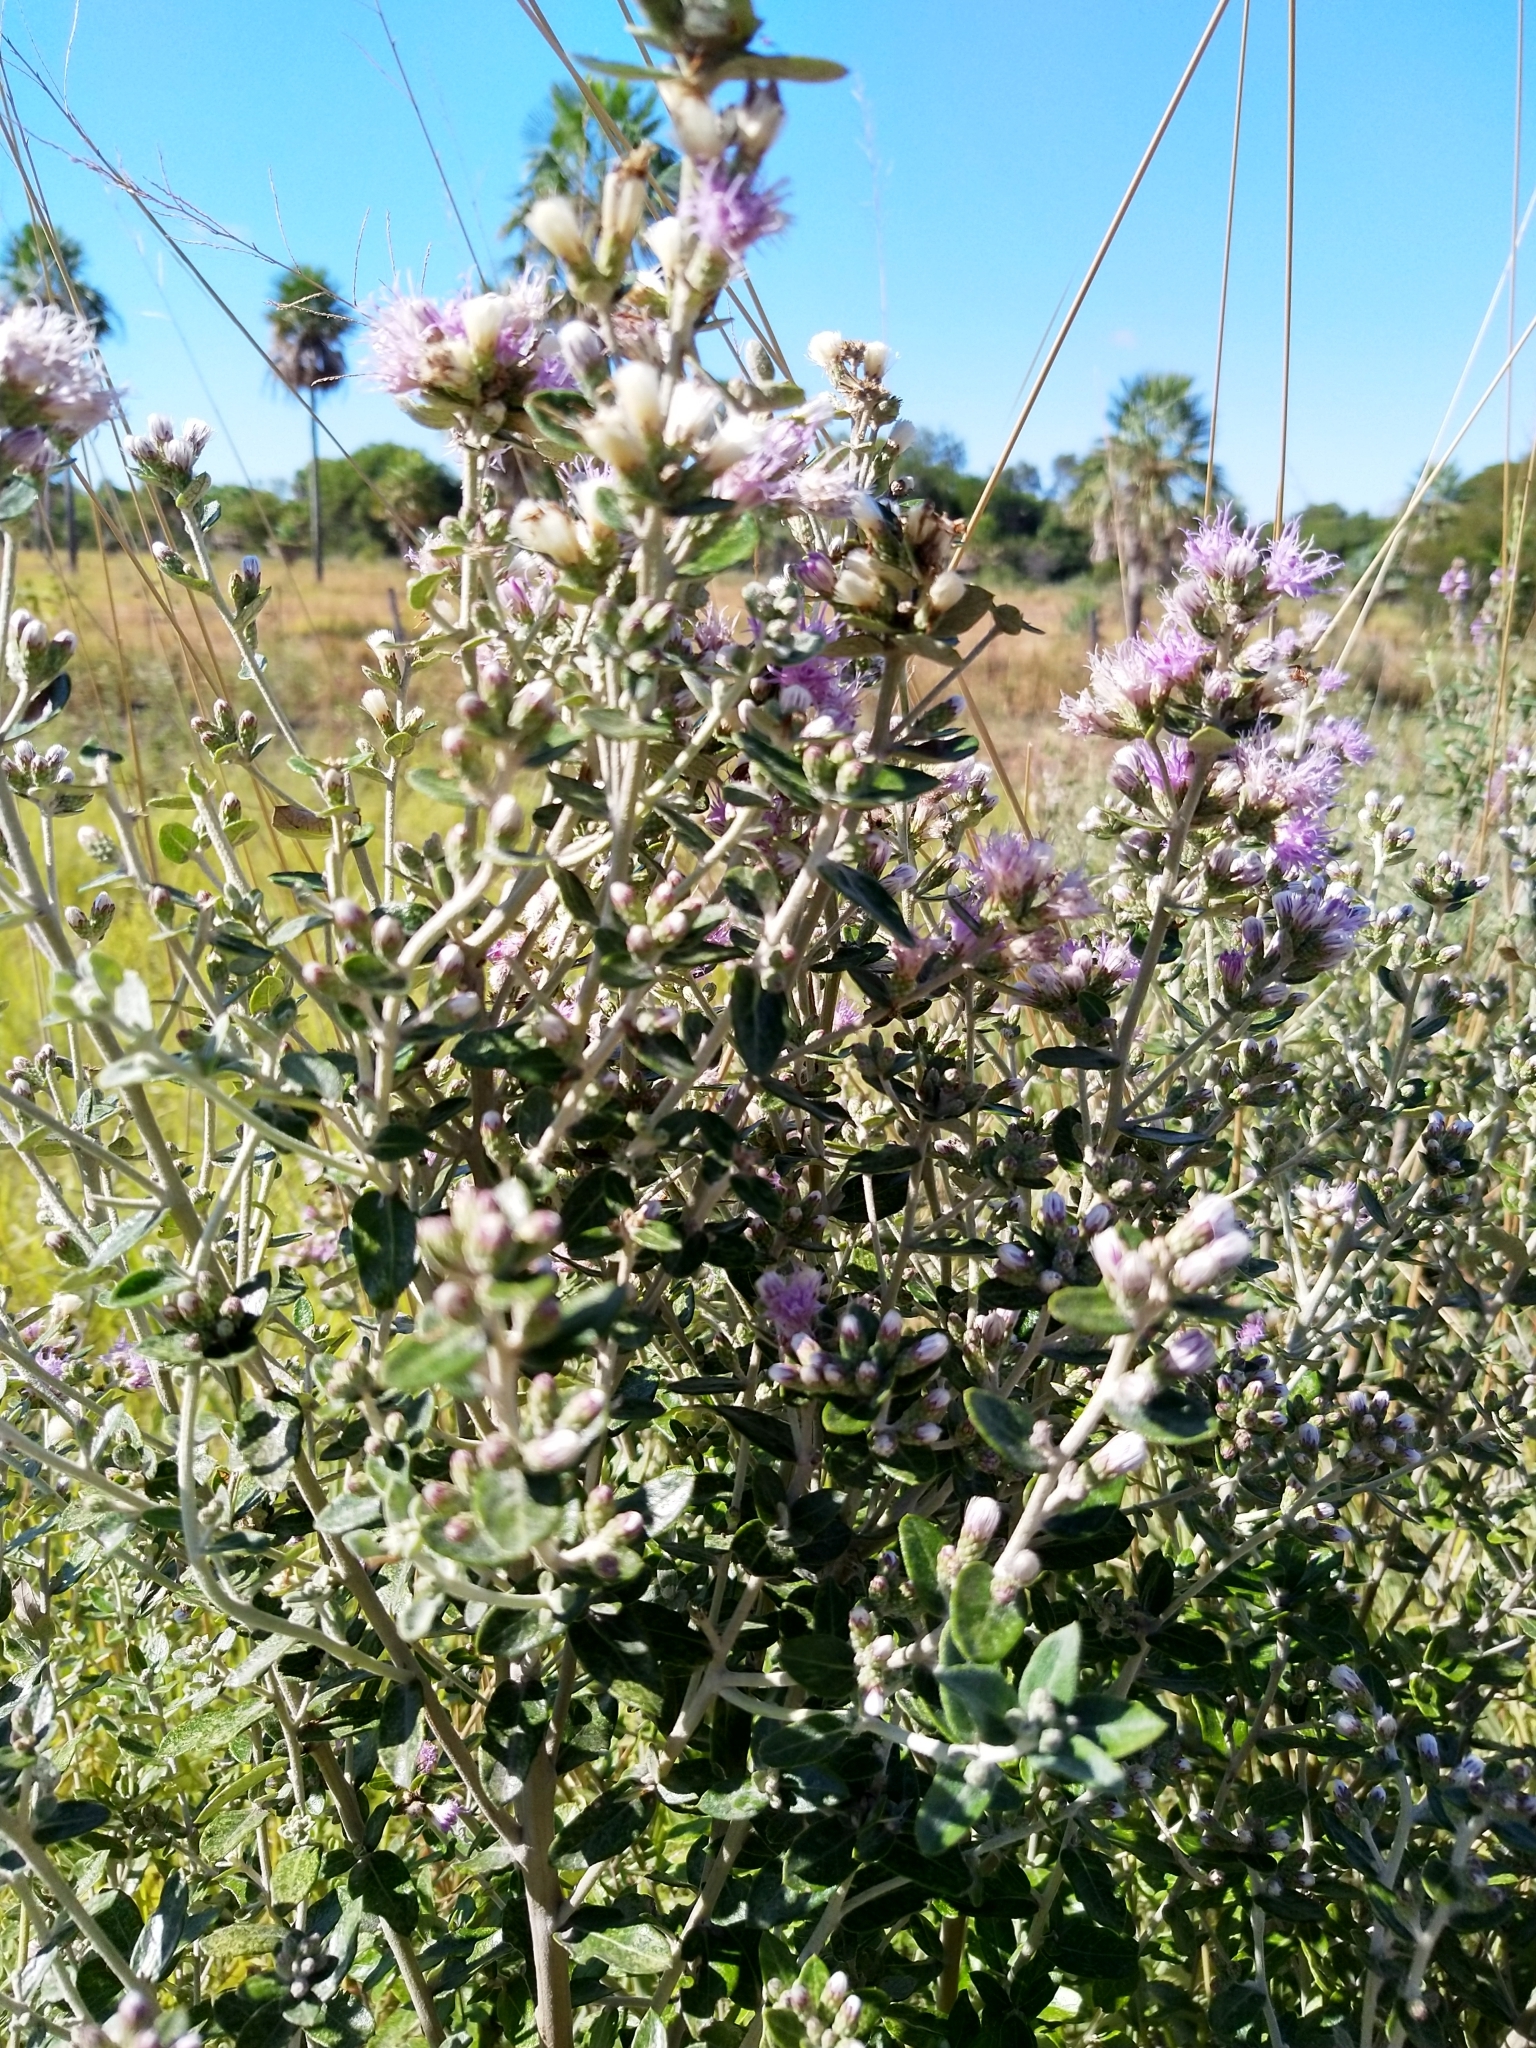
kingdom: Plantae
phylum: Tracheophyta
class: Magnoliopsida
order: Asterales
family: Asteraceae
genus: Vernonanthura
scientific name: Vernonanthura chamaedrys
